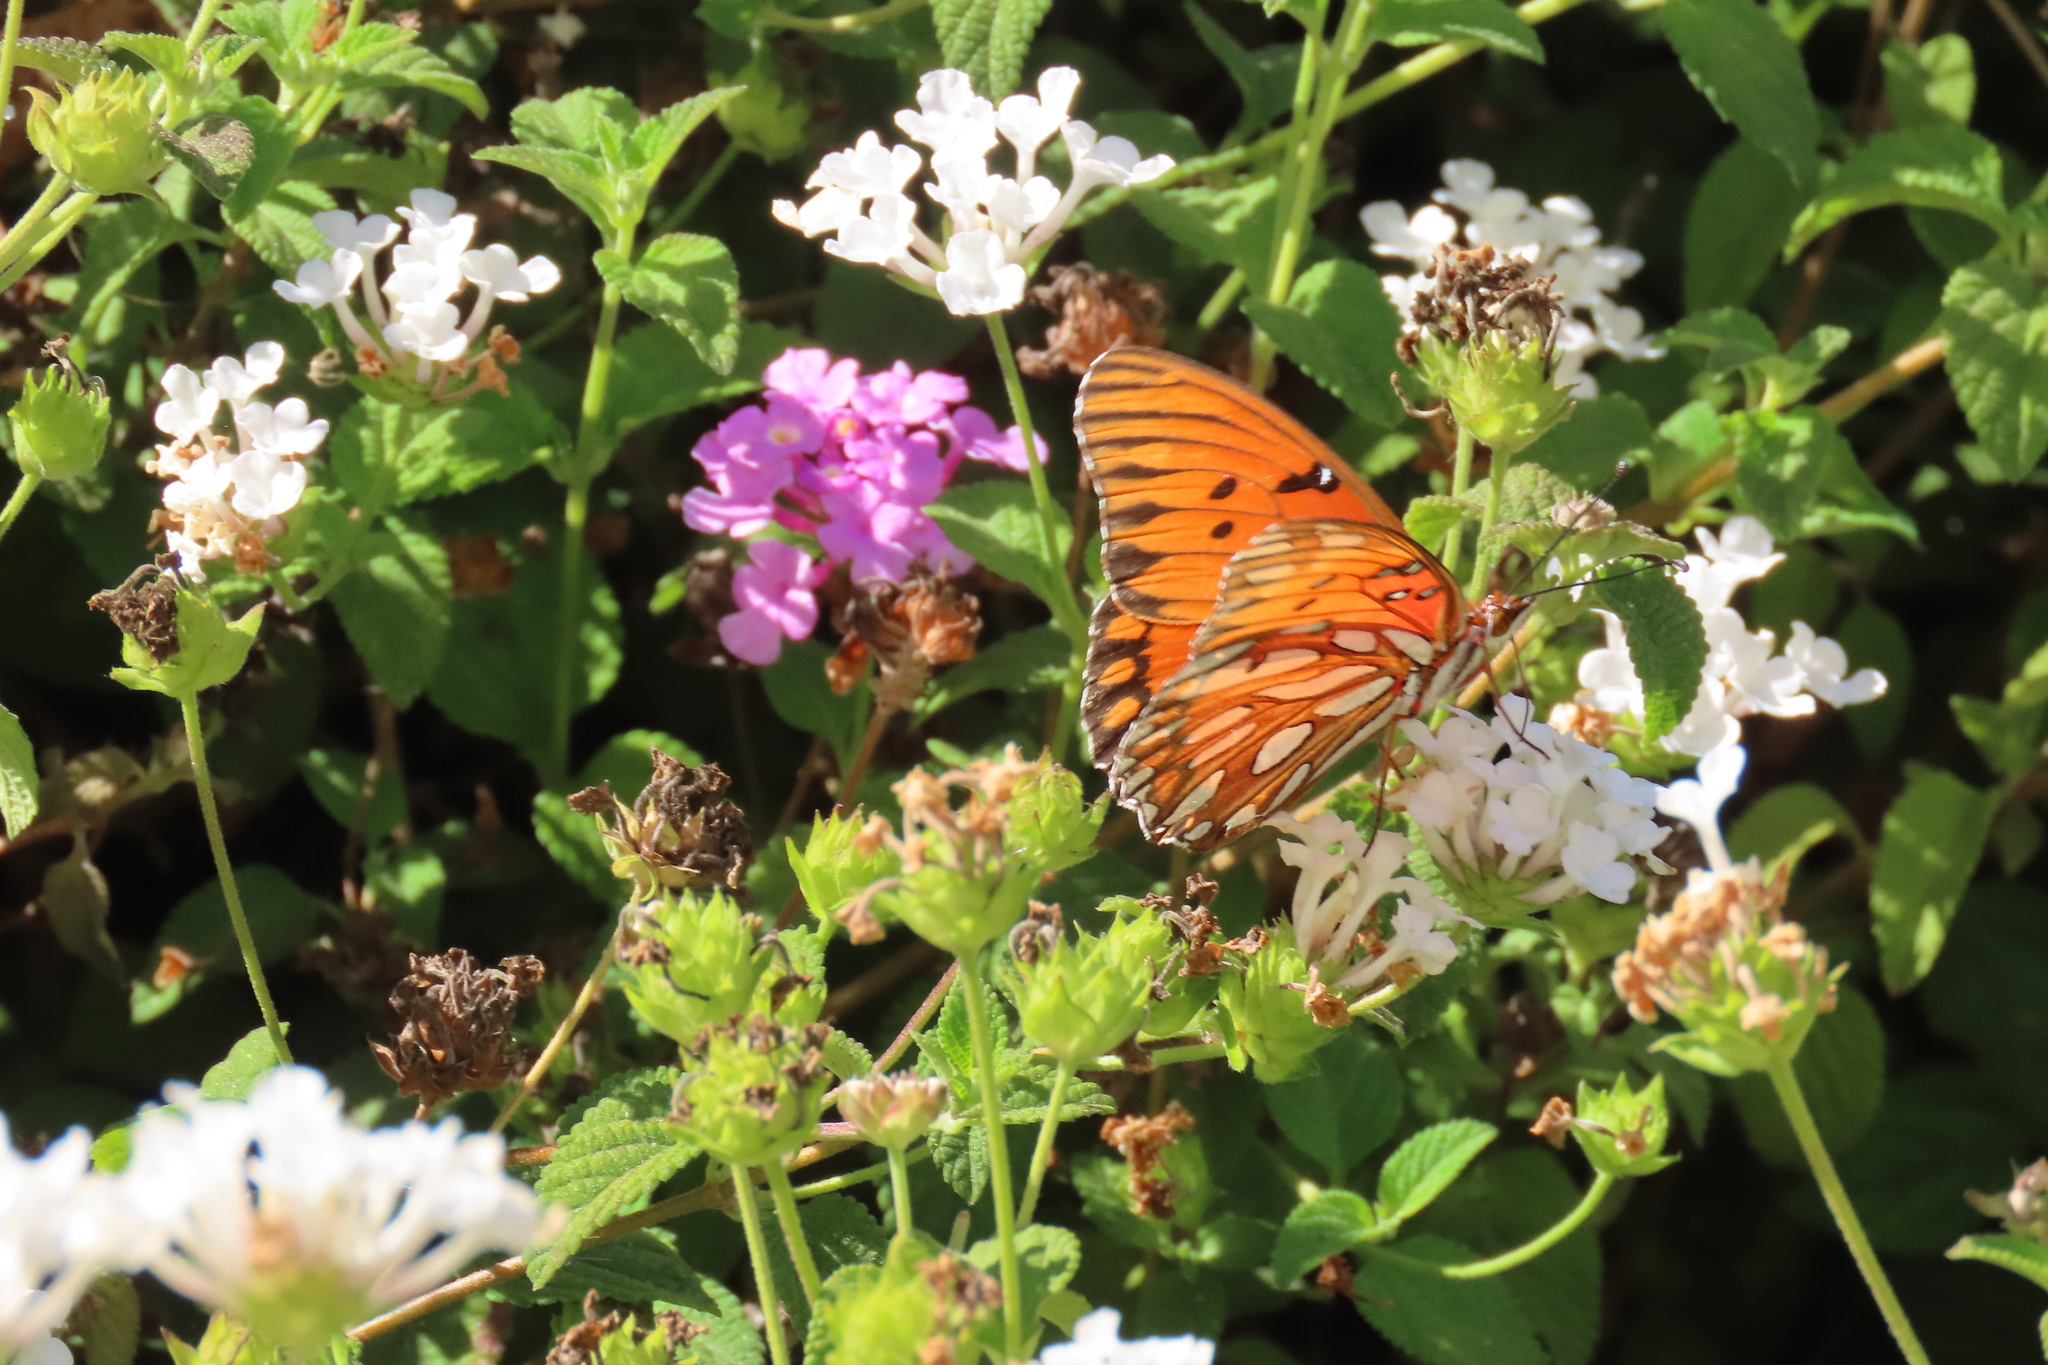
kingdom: Animalia
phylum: Arthropoda
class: Insecta
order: Lepidoptera
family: Nymphalidae
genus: Dione
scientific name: Dione vanillae
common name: Gulf fritillary
